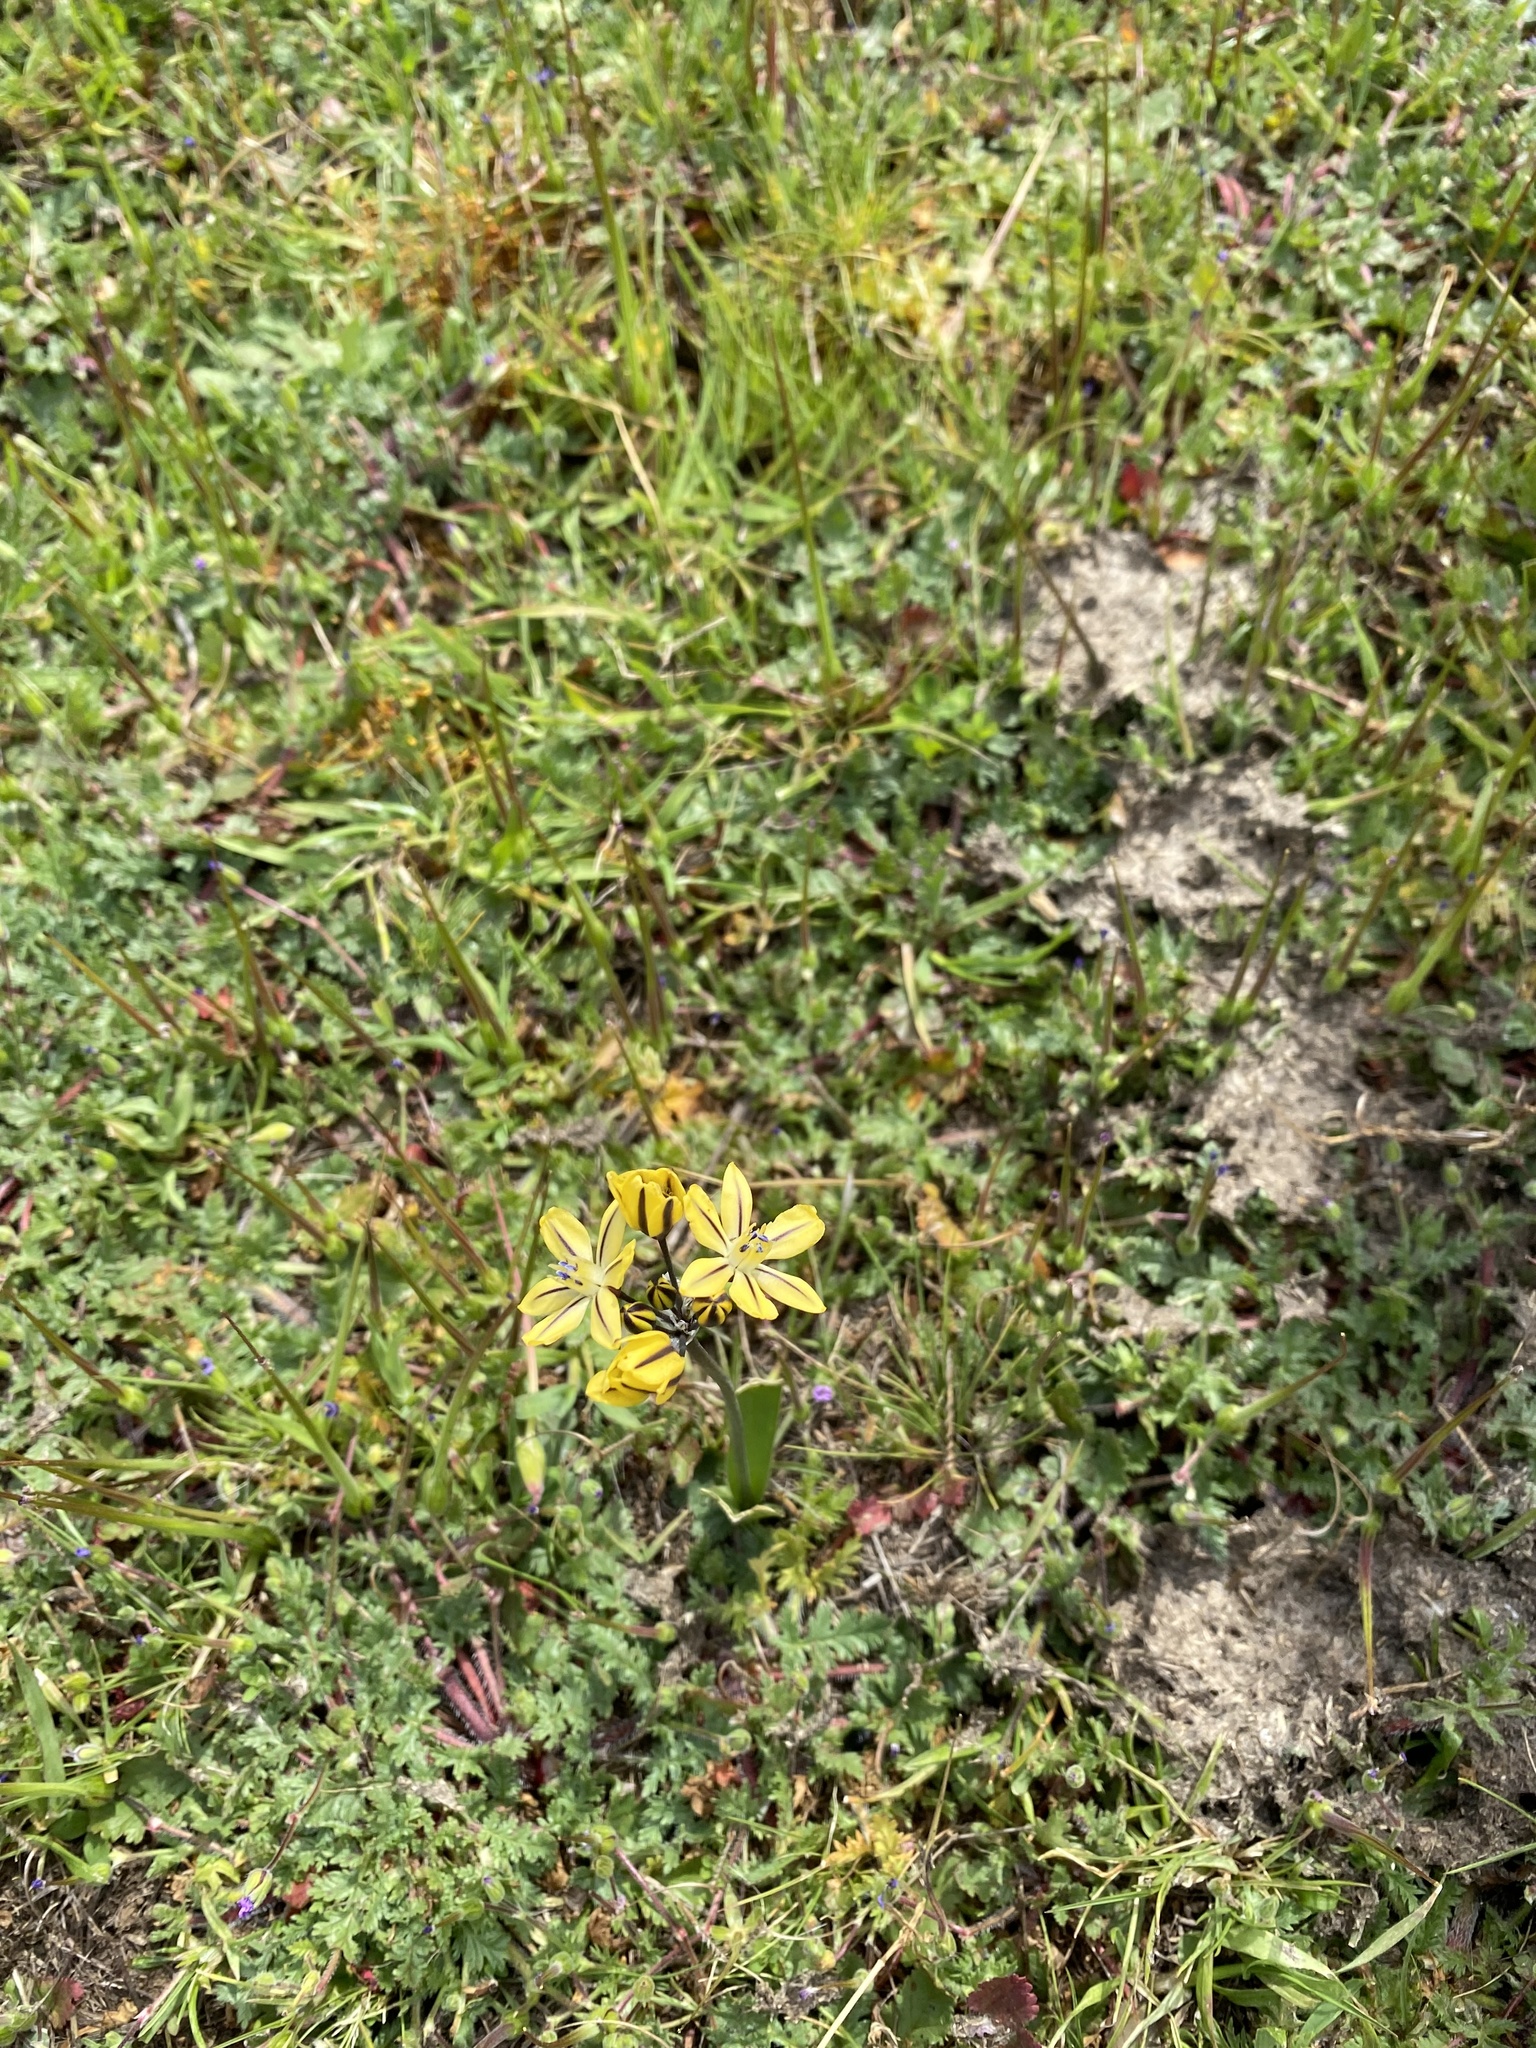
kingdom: Plantae
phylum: Tracheophyta
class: Liliopsida
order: Asparagales
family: Asparagaceae
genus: Triteleia
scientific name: Triteleia ixioides
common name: Yellow-brodiaea
